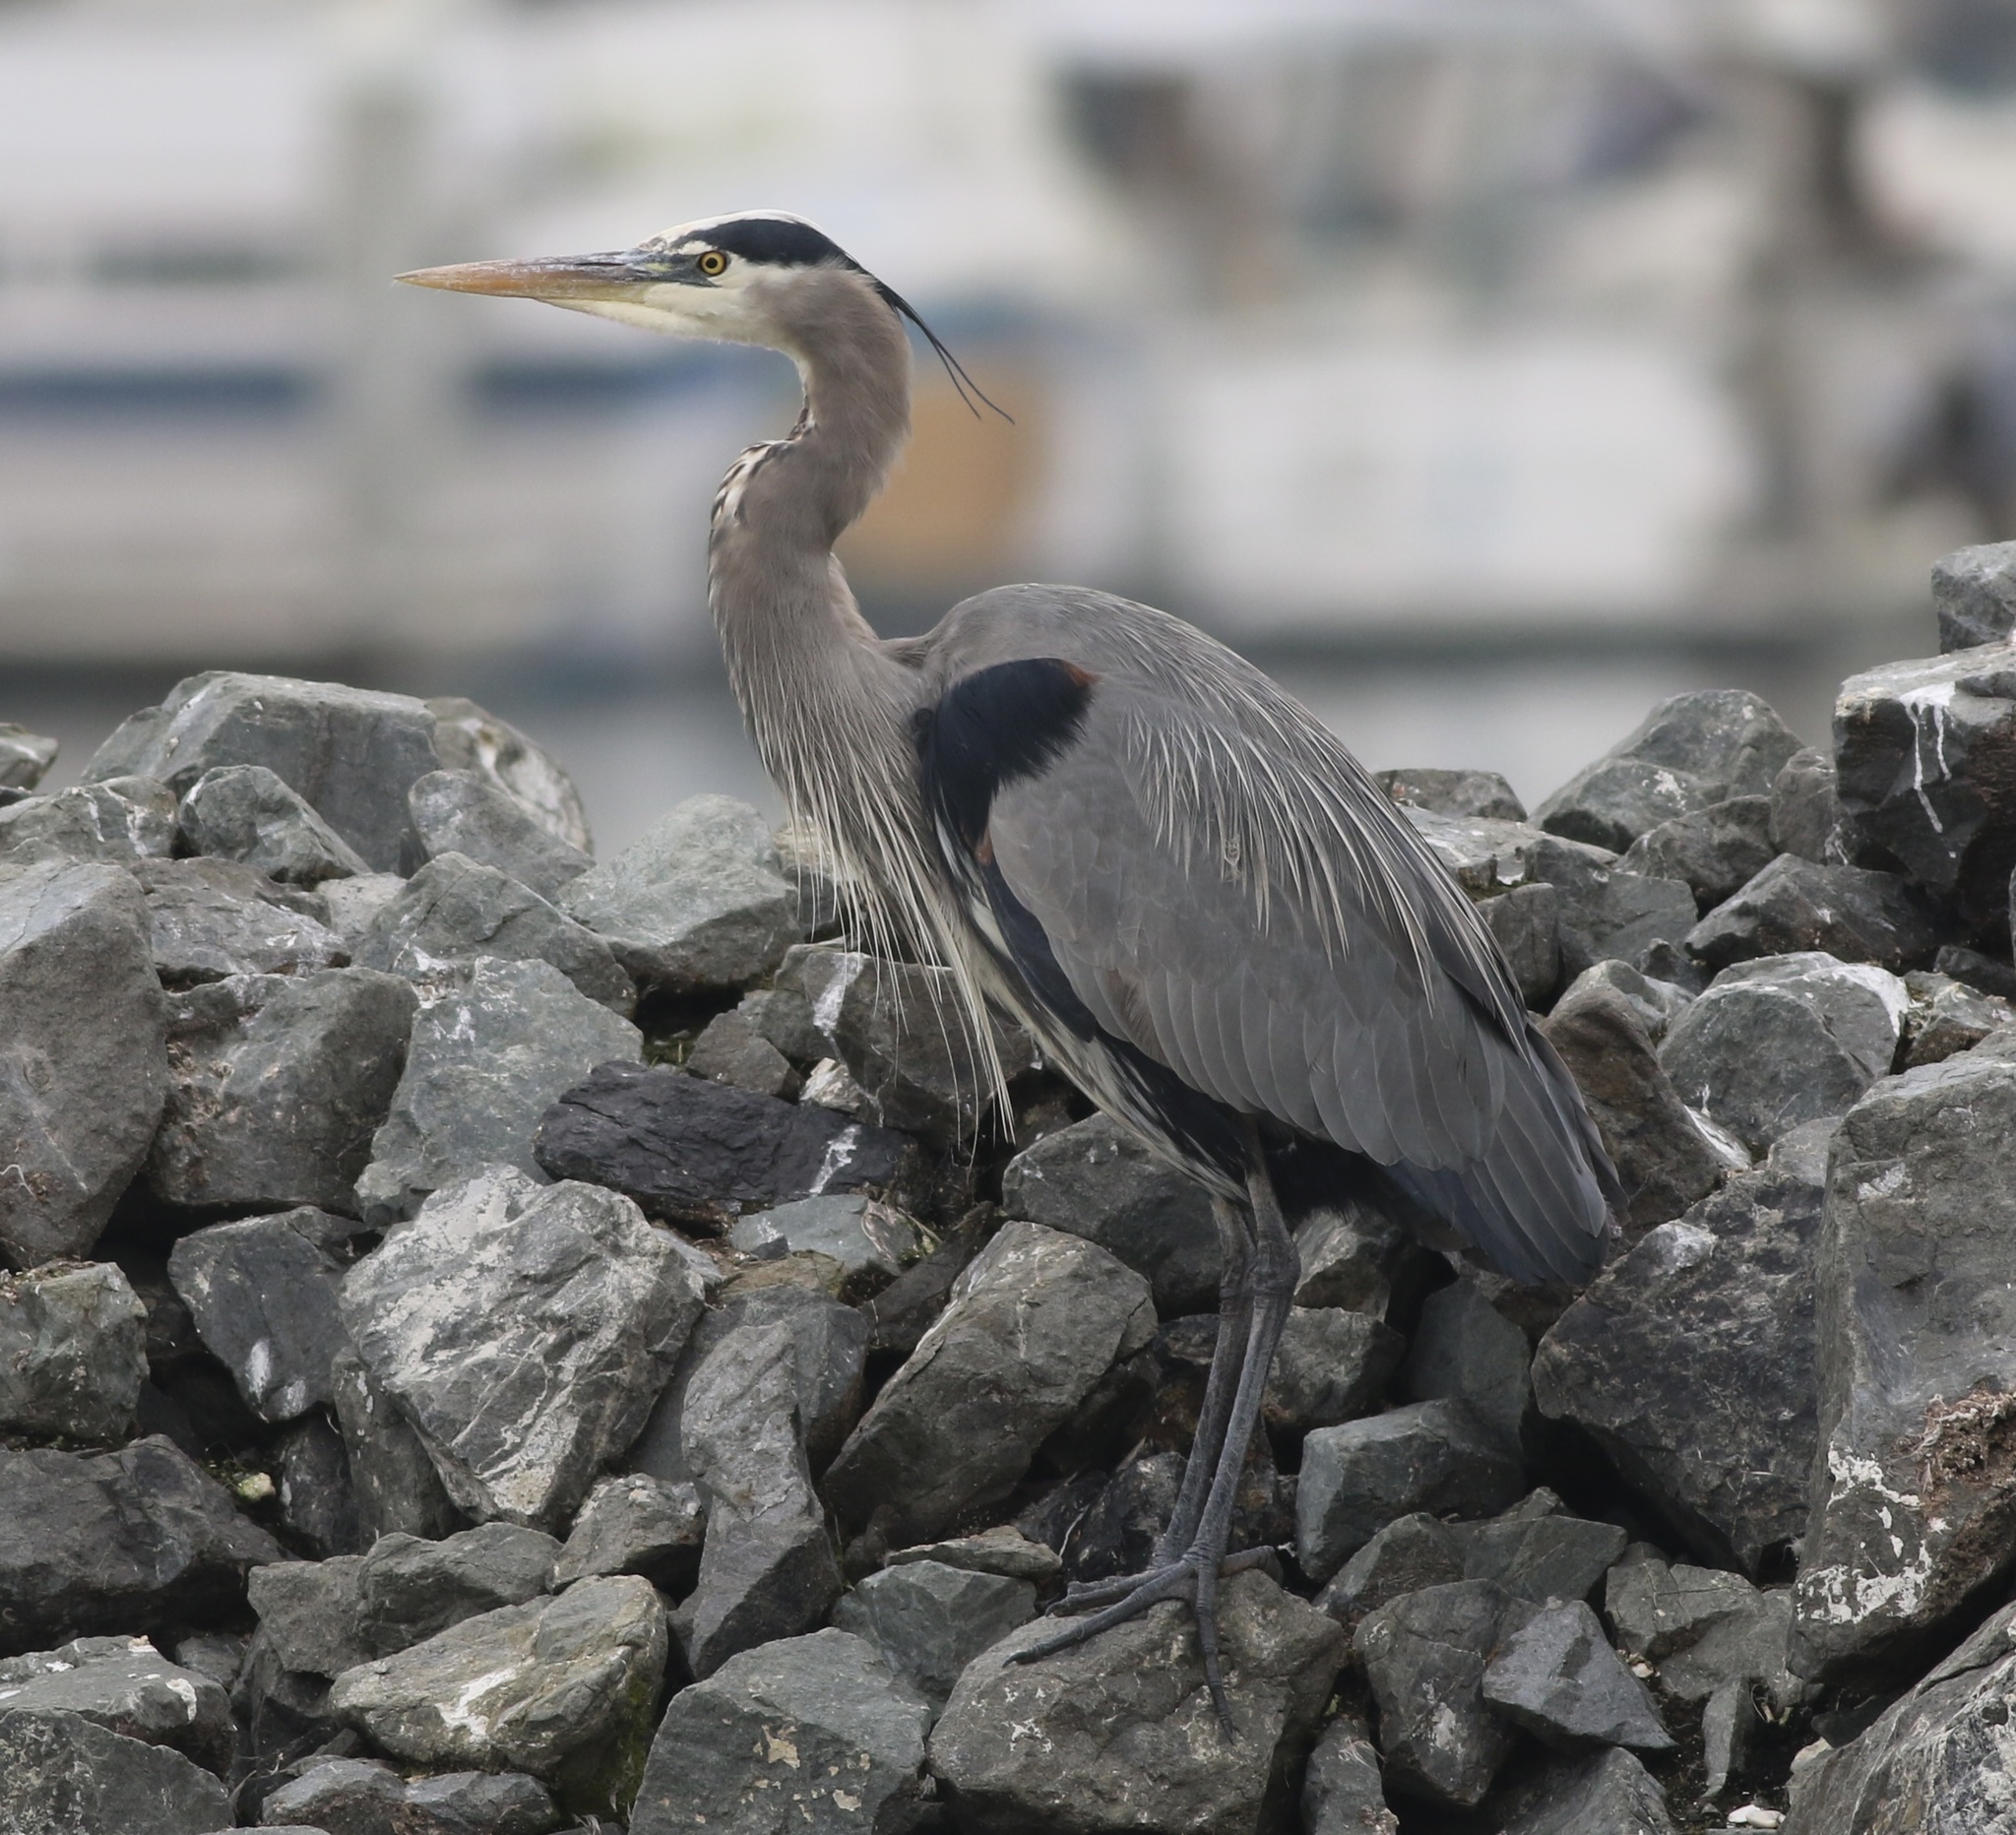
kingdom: Animalia
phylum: Chordata
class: Aves
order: Pelecaniformes
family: Ardeidae
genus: Ardea
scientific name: Ardea herodias
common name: Great blue heron
